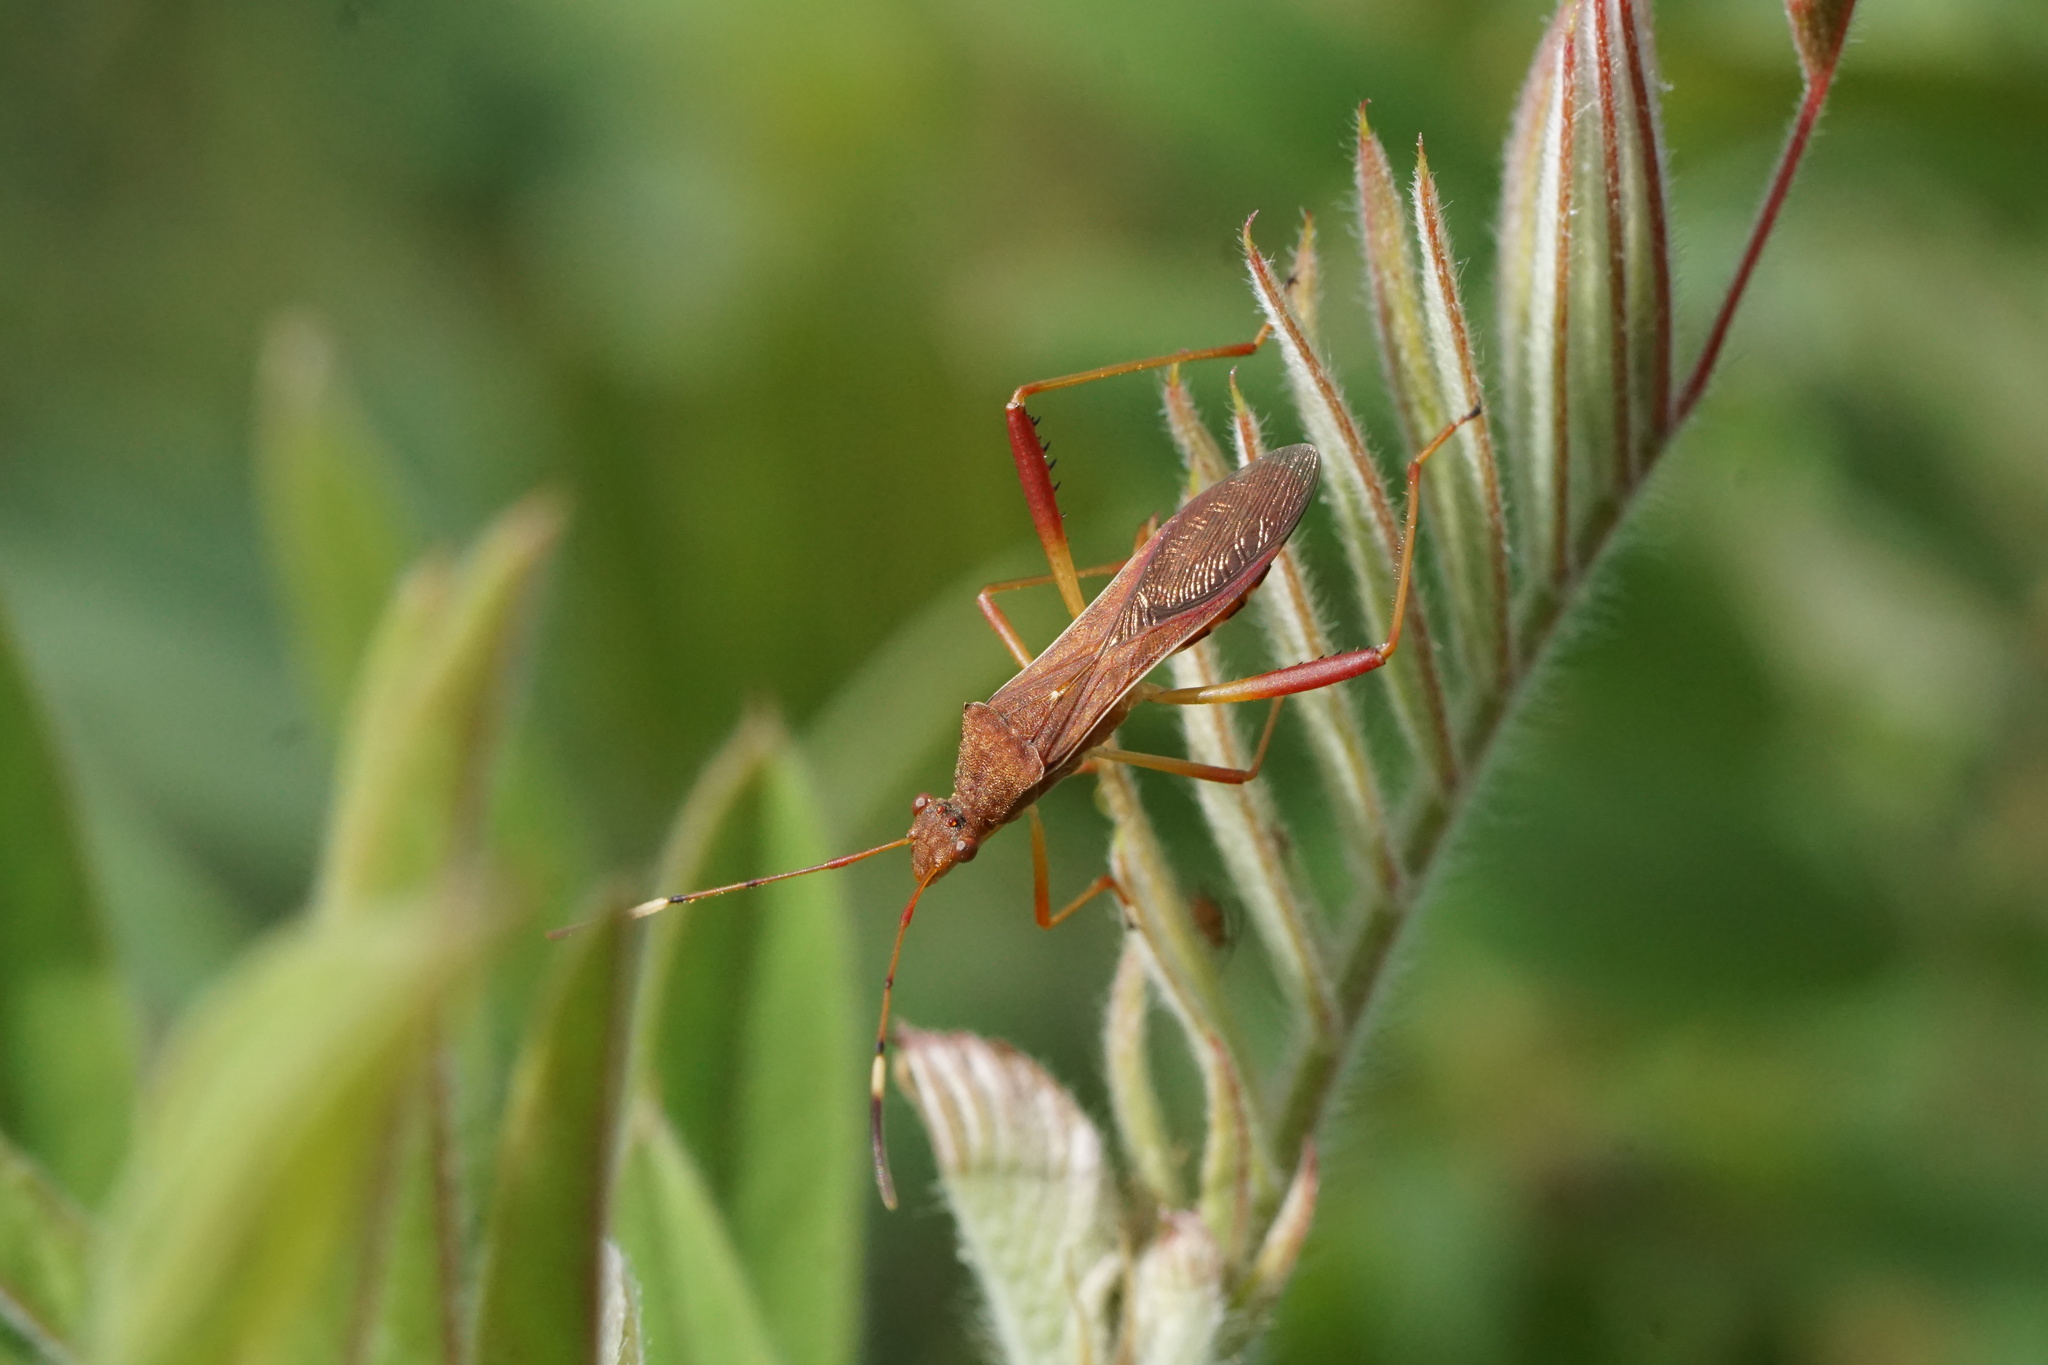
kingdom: Animalia
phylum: Arthropoda
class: Insecta
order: Hemiptera
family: Alydidae
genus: Megalotomus
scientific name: Megalotomus quinquespinosus
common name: Lupine bug
